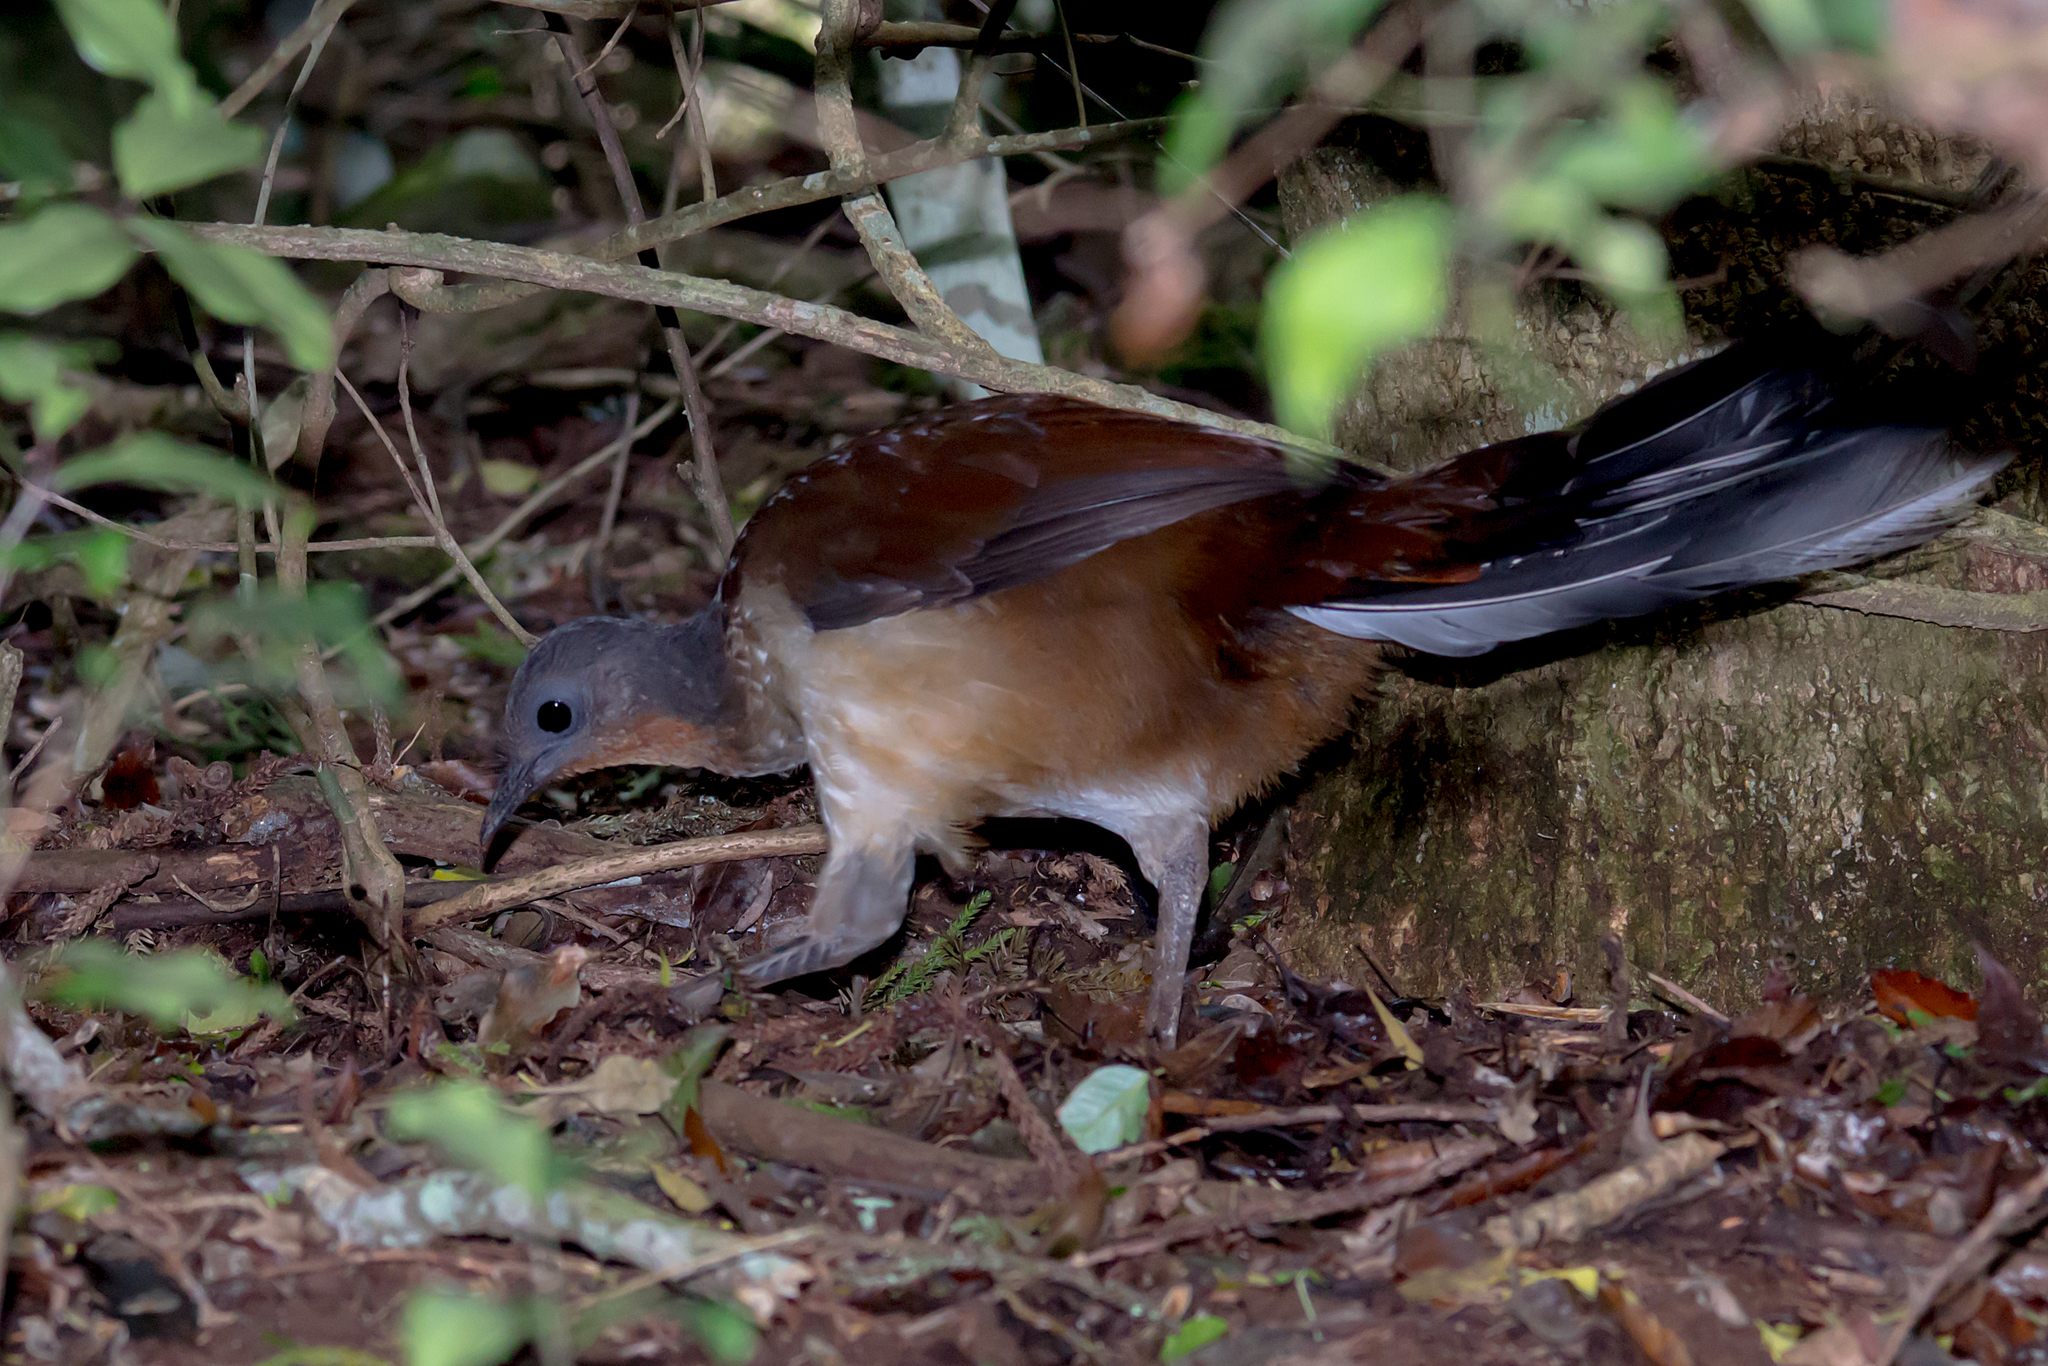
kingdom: Animalia
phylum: Chordata
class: Aves
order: Passeriformes
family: Menuridae
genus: Menura
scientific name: Menura alberti
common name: Albert's lyrebird
